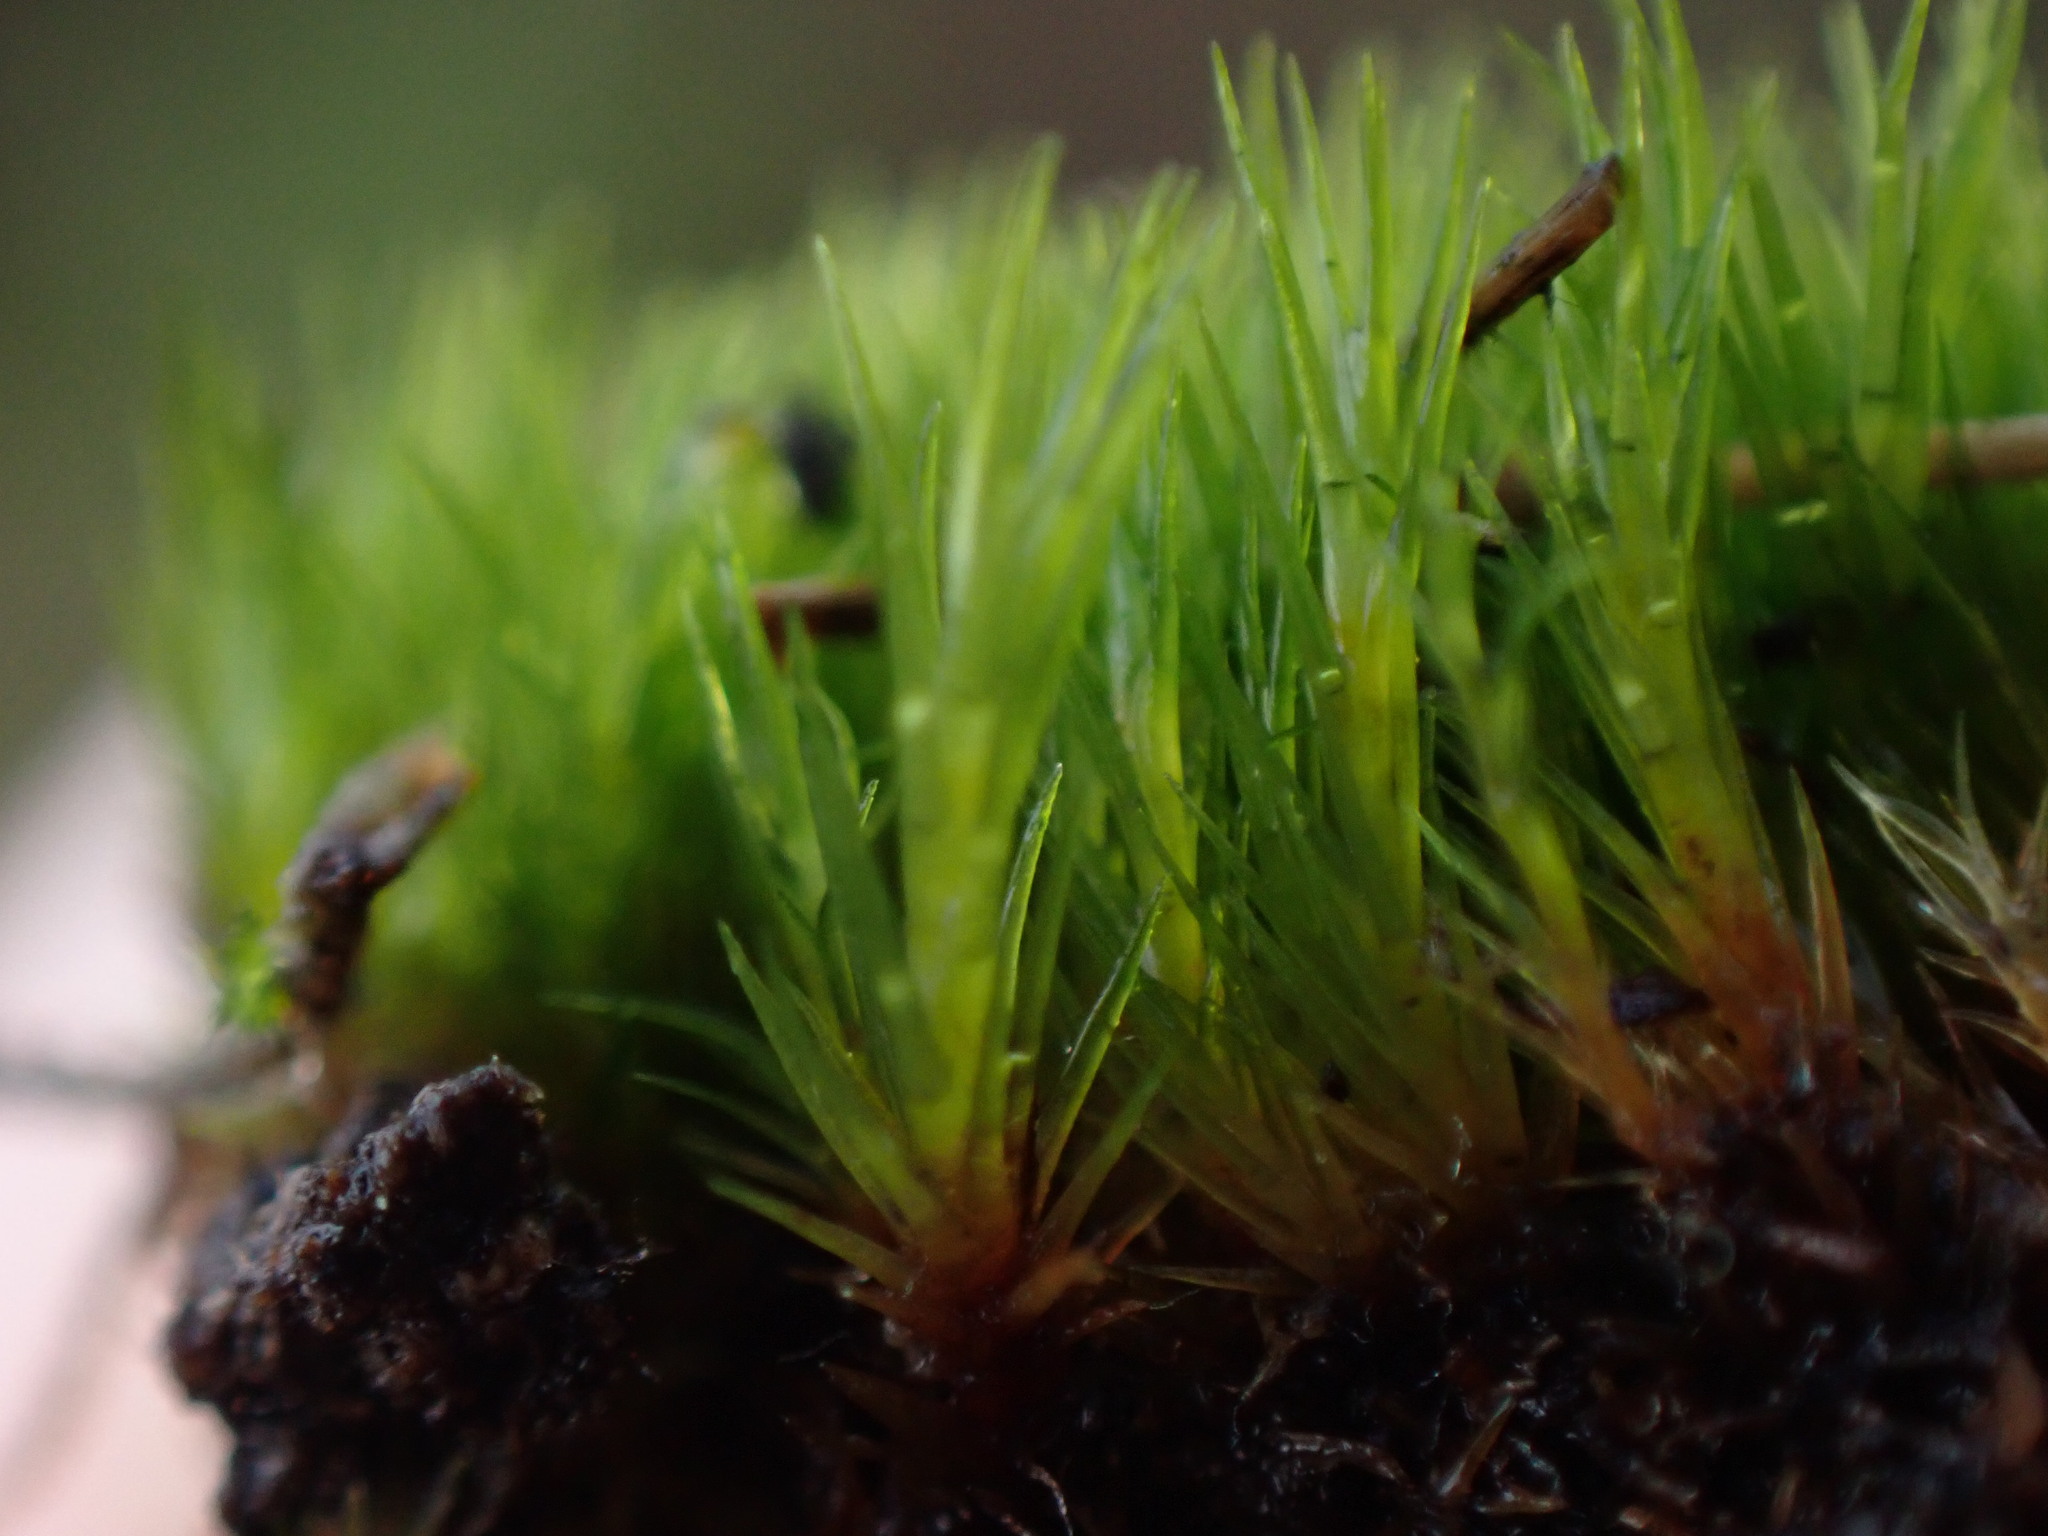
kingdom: Plantae
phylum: Bryophyta
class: Bryopsida
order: Dicranales
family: Leucobryaceae
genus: Campylopus
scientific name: Campylopus fragilis
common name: Brittle swan-neck moss
